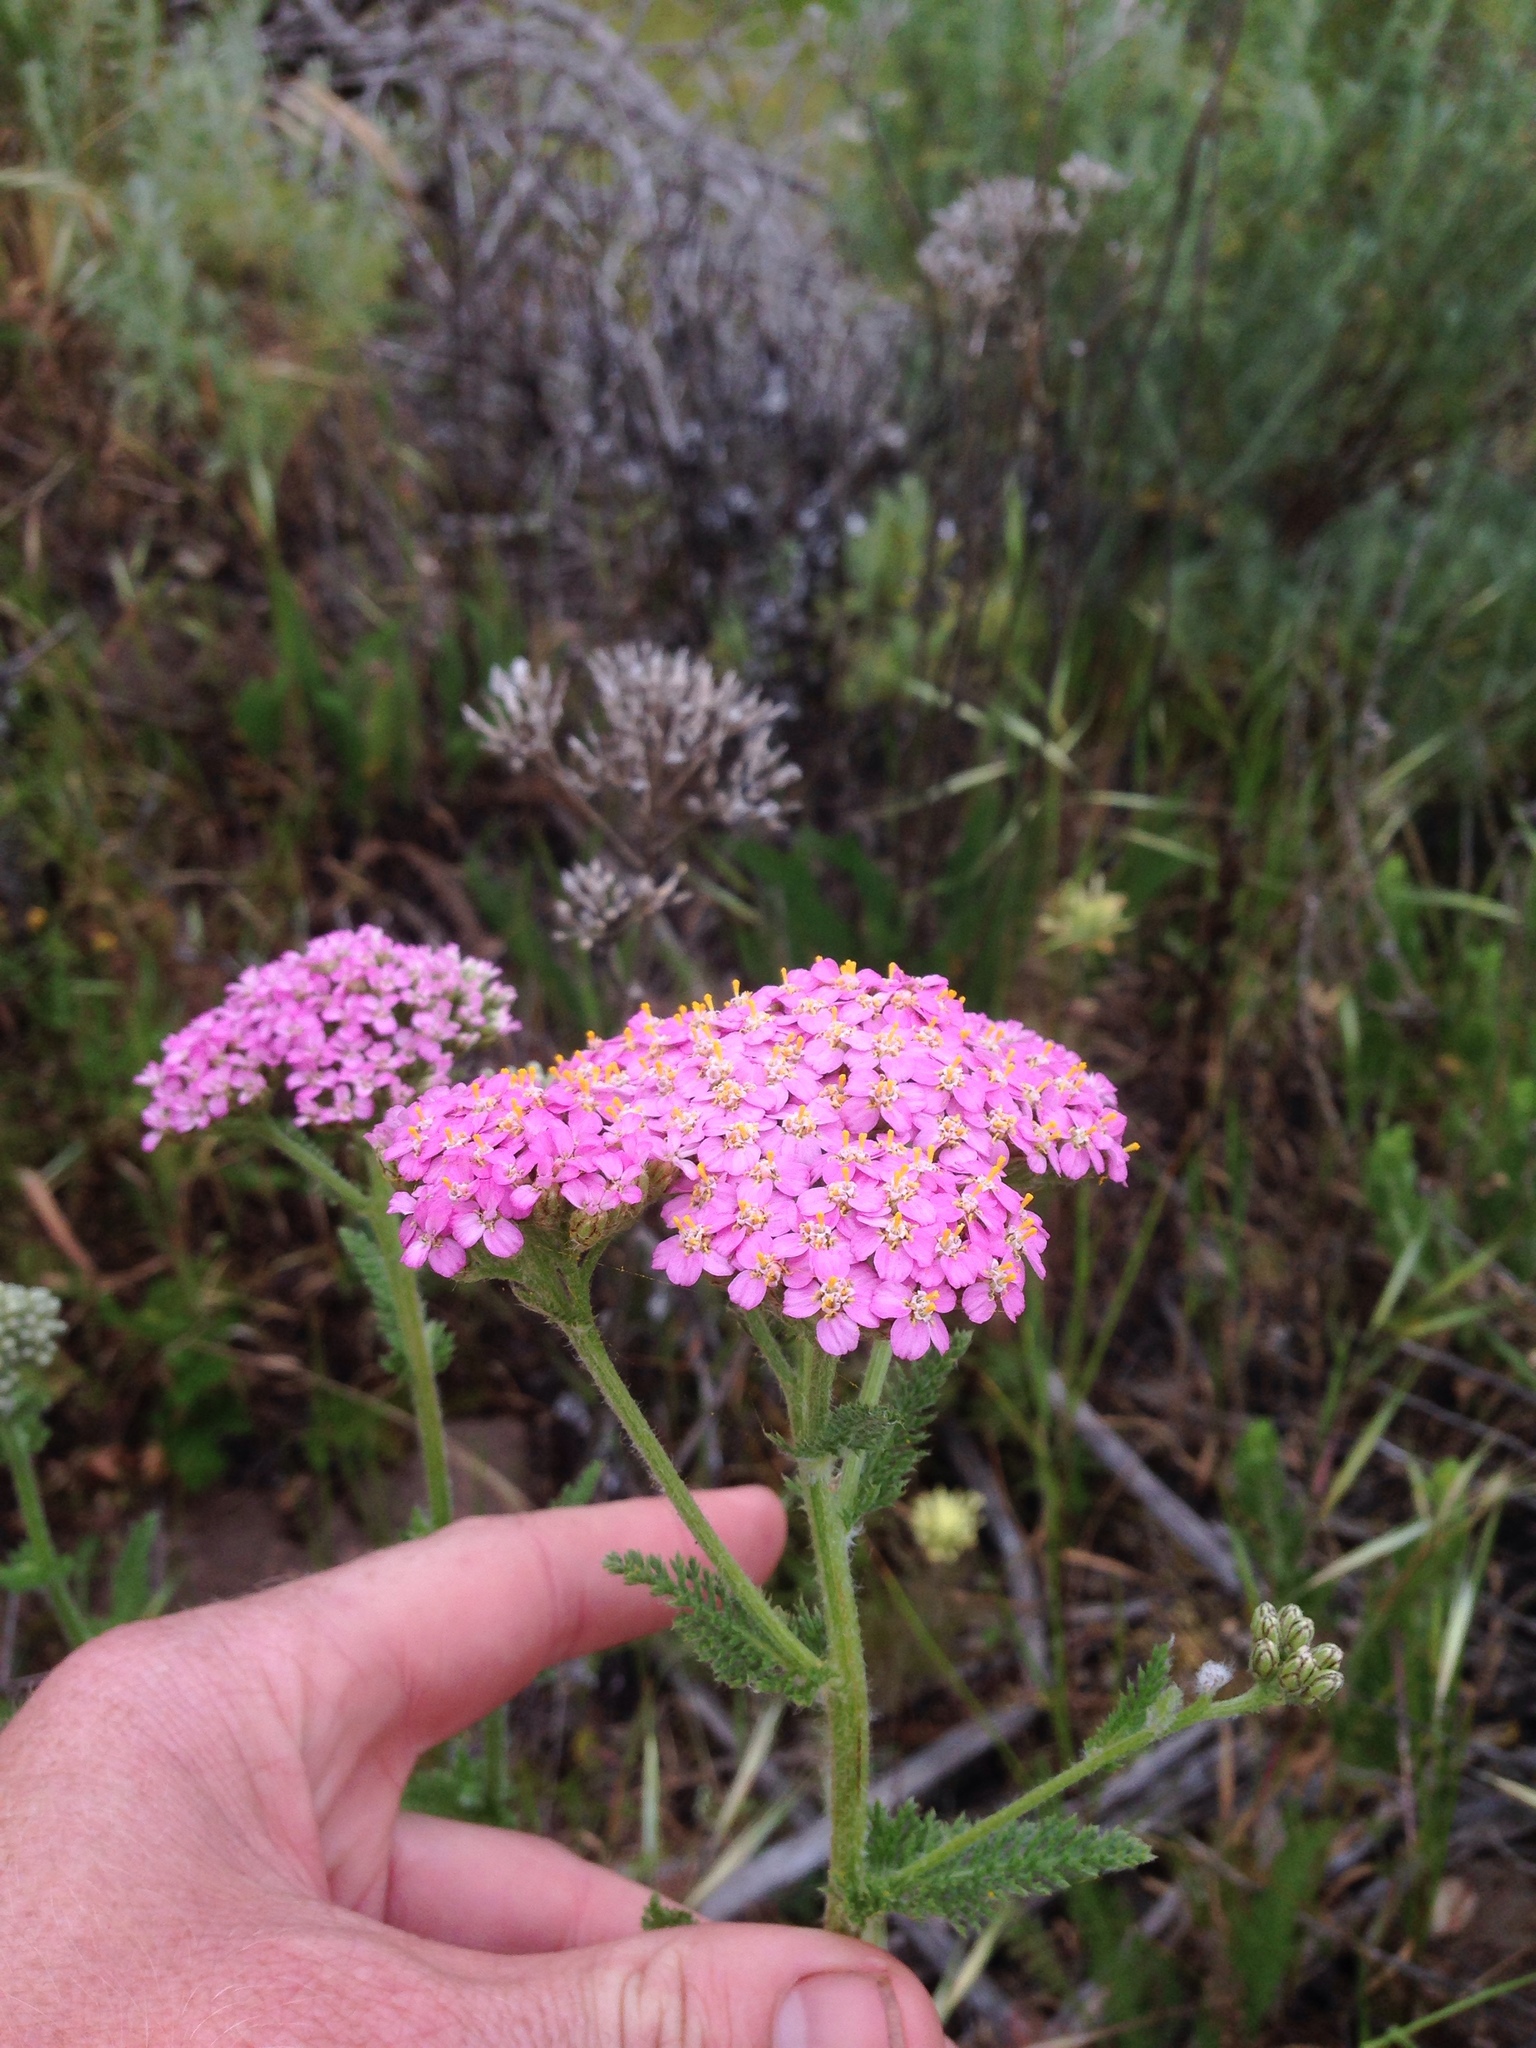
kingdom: Plantae
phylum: Tracheophyta
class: Magnoliopsida
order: Asterales
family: Asteraceae
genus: Achillea
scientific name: Achillea millefolium
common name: Yarrow
